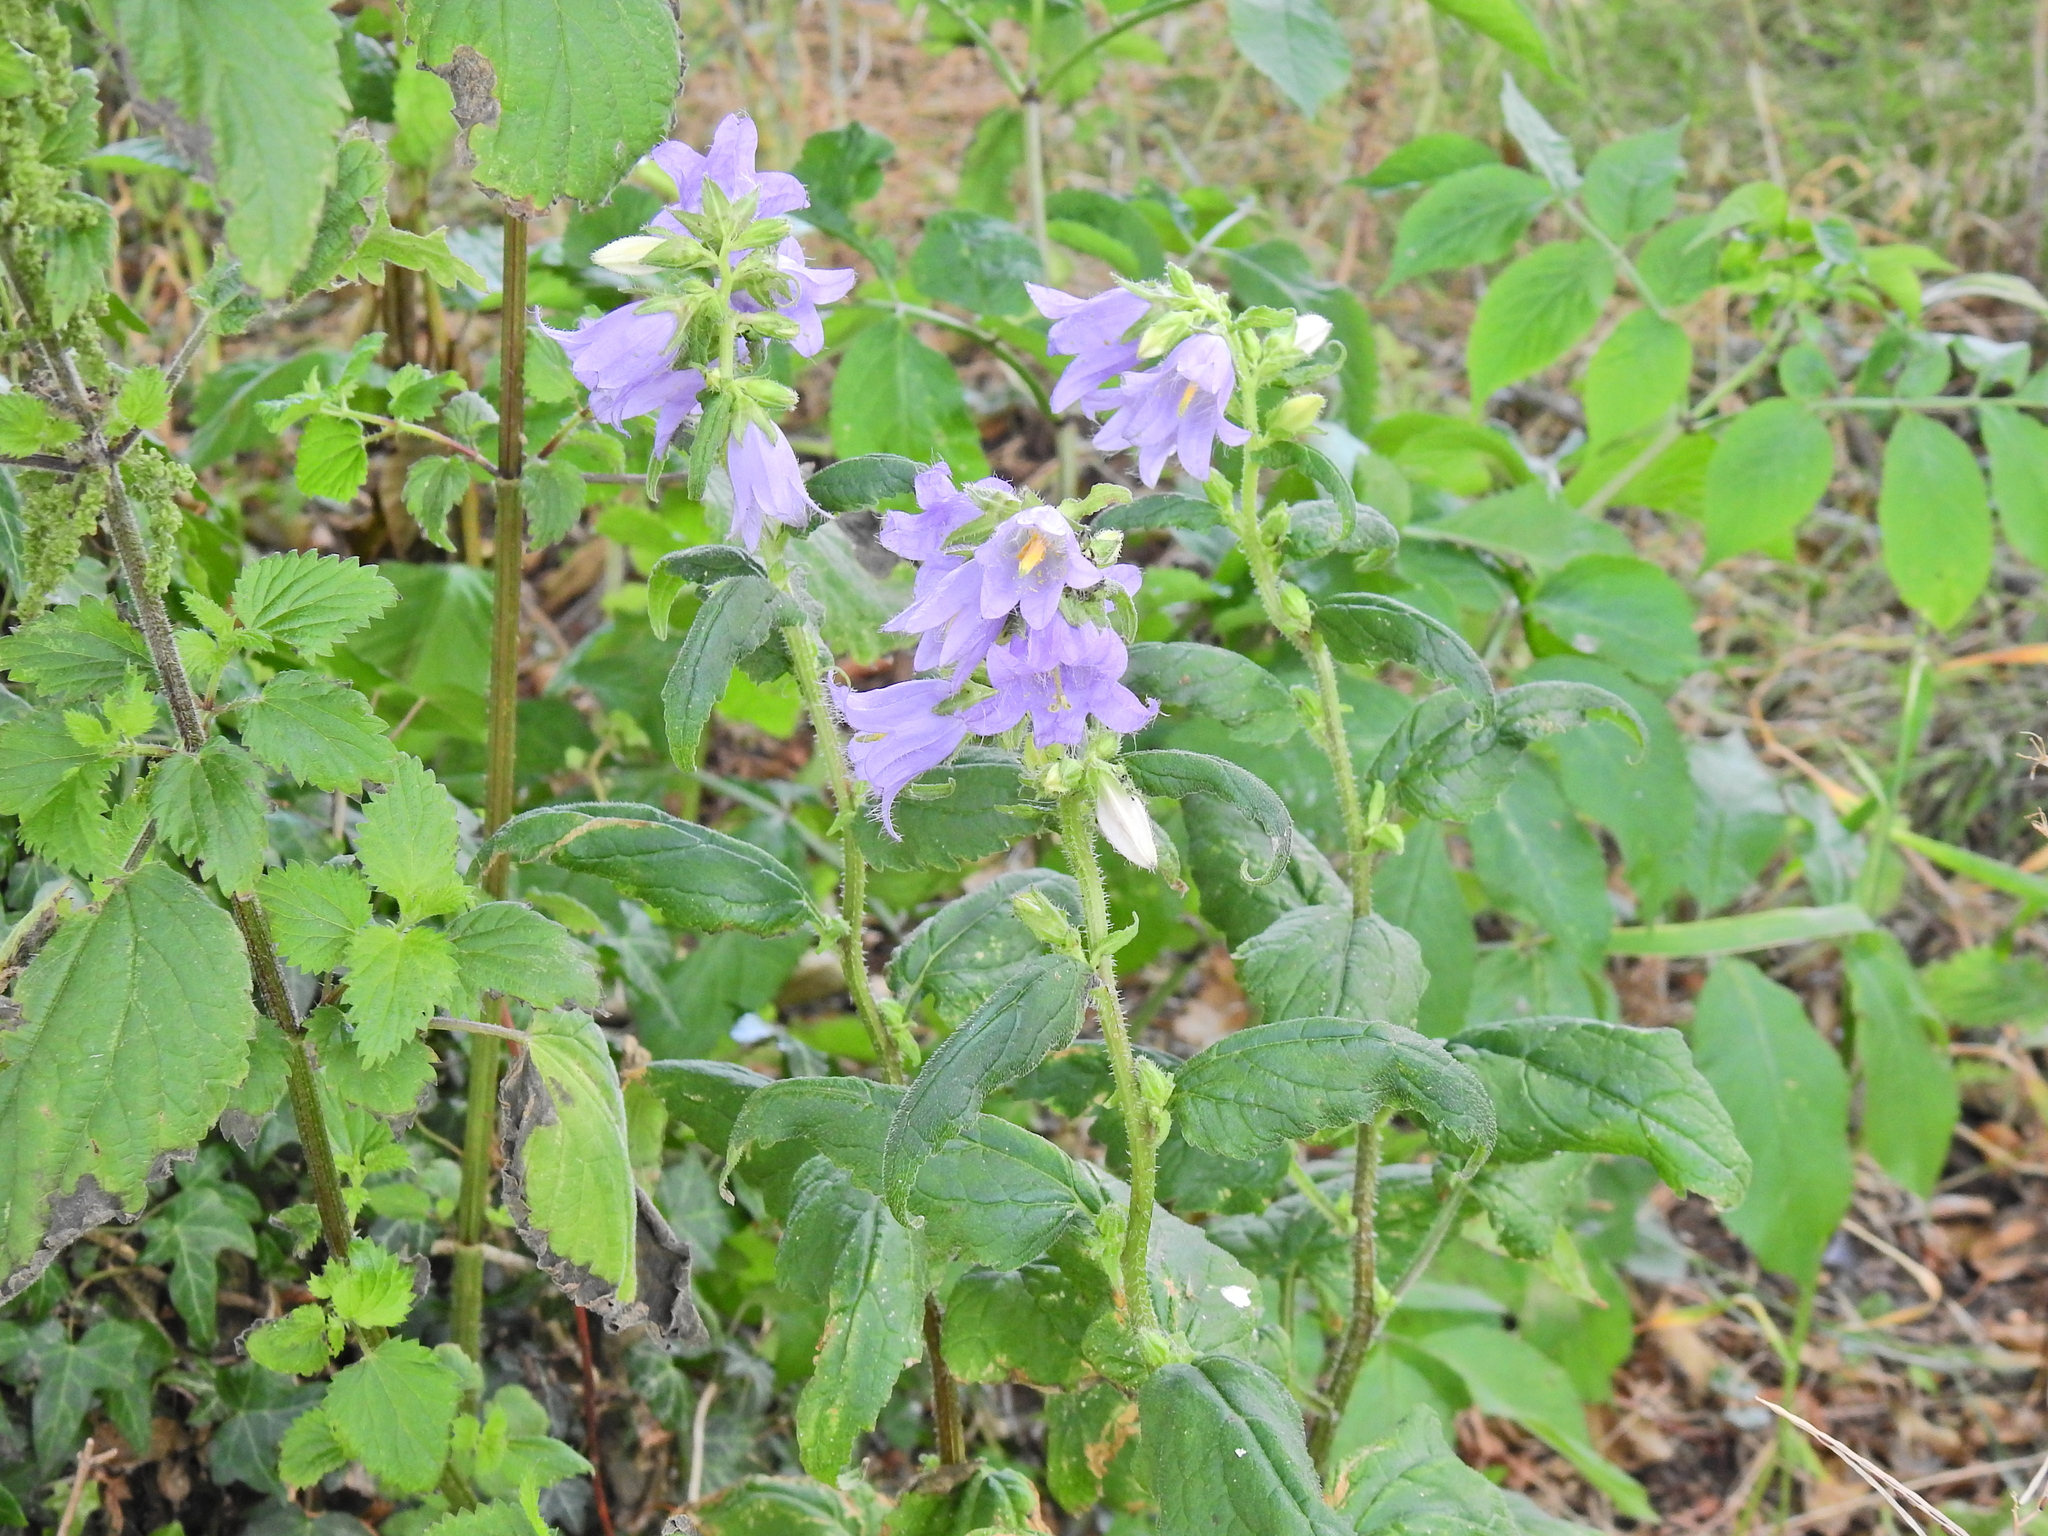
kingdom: Plantae
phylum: Tracheophyta
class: Magnoliopsida
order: Asterales
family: Campanulaceae
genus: Campanula
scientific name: Campanula trachelium
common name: Nettle-leaved bellflower
